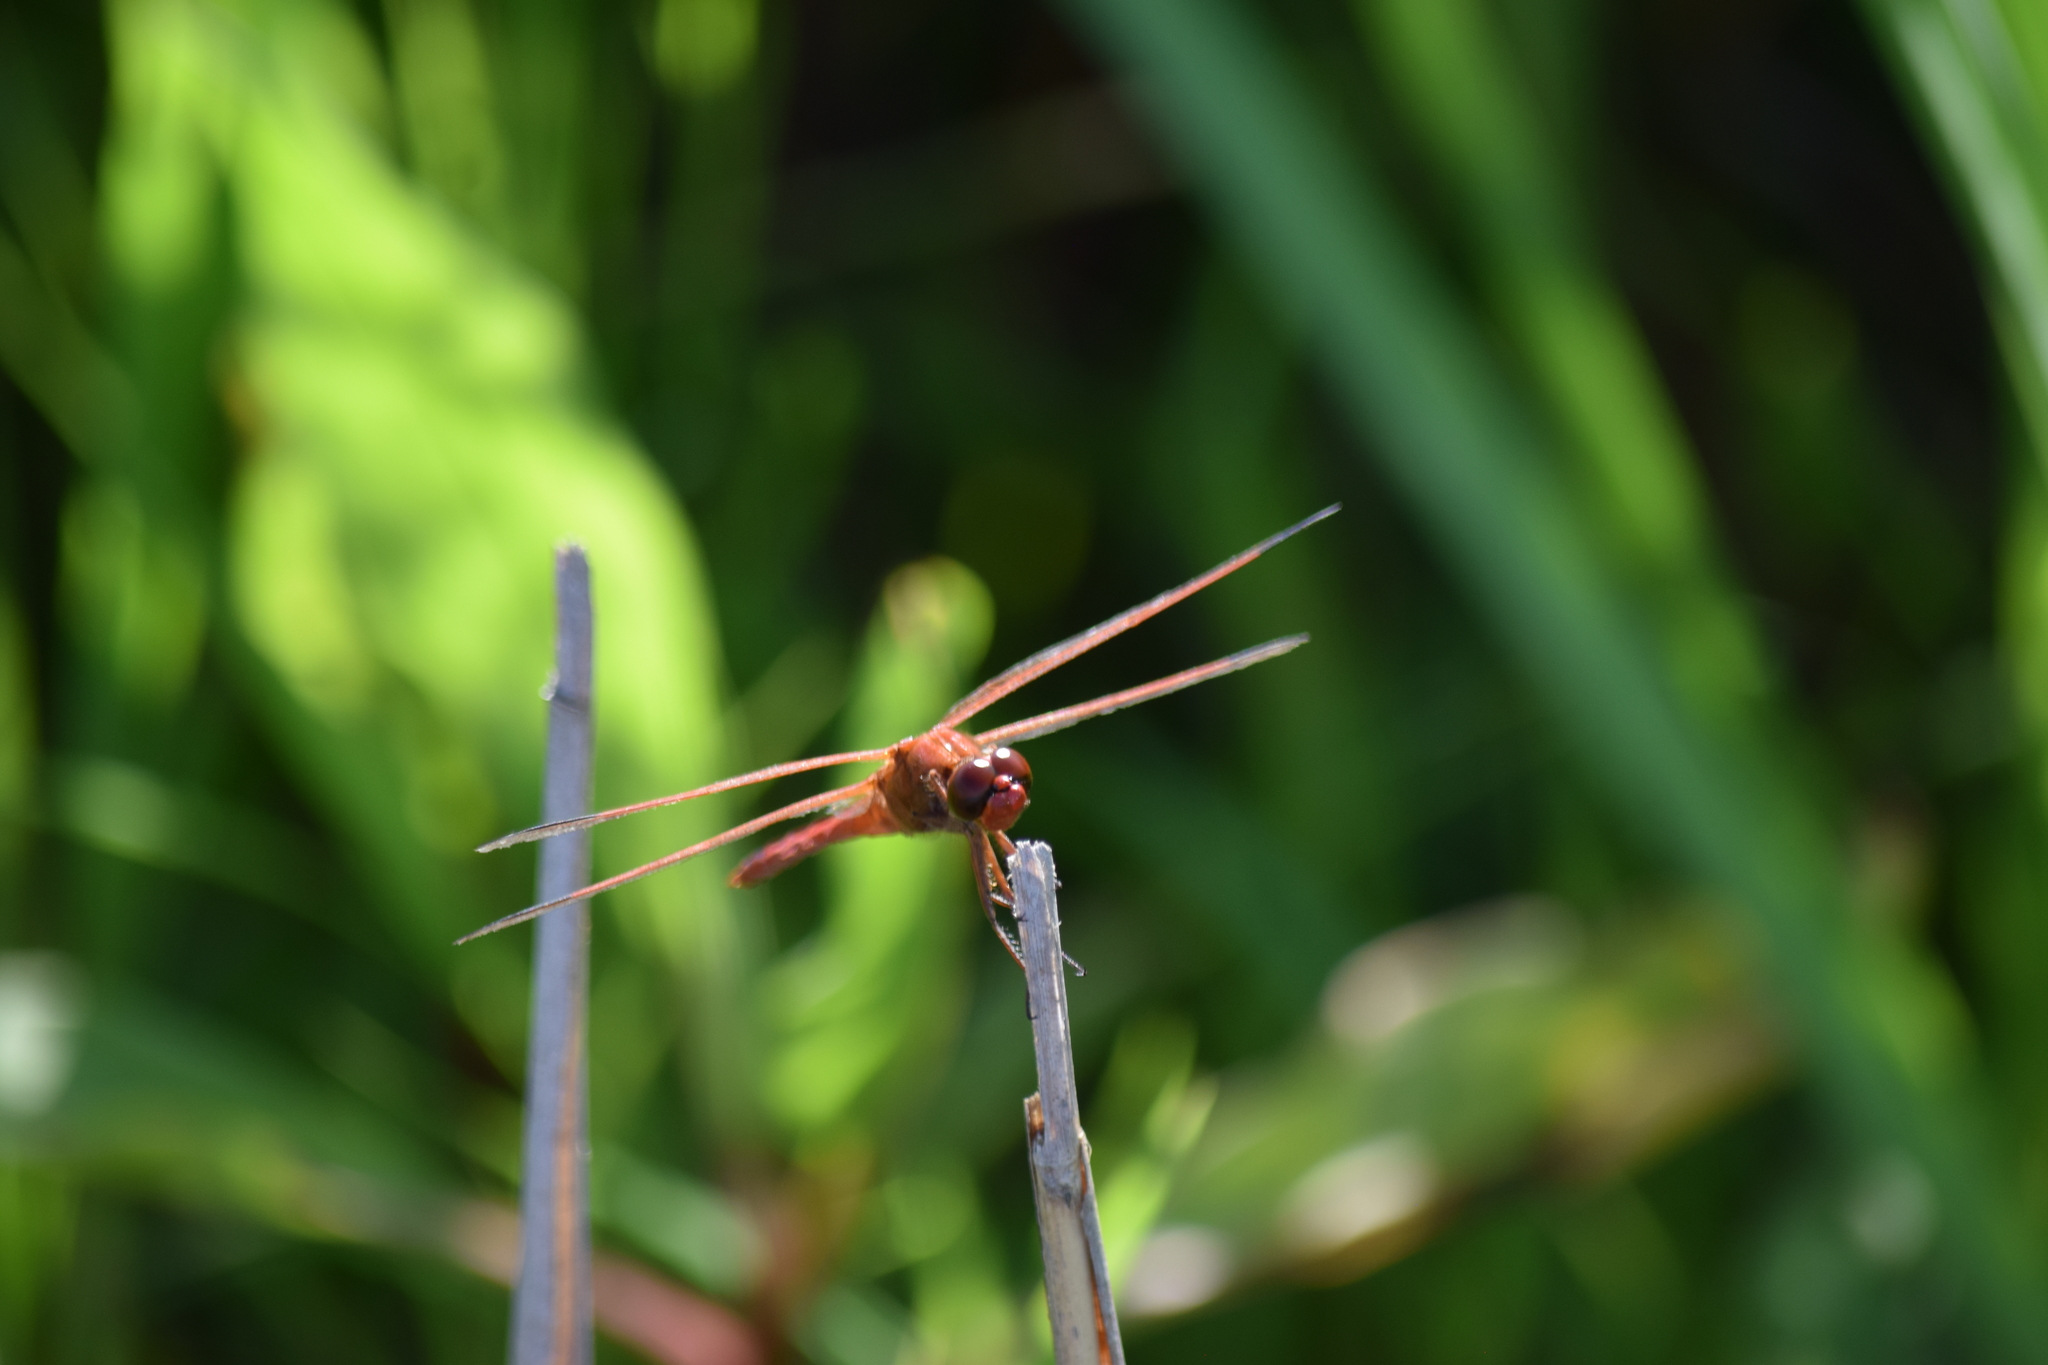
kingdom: Animalia
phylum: Arthropoda
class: Insecta
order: Odonata
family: Libellulidae
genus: Libellula
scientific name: Libellula needhami
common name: Needham's skimmer
